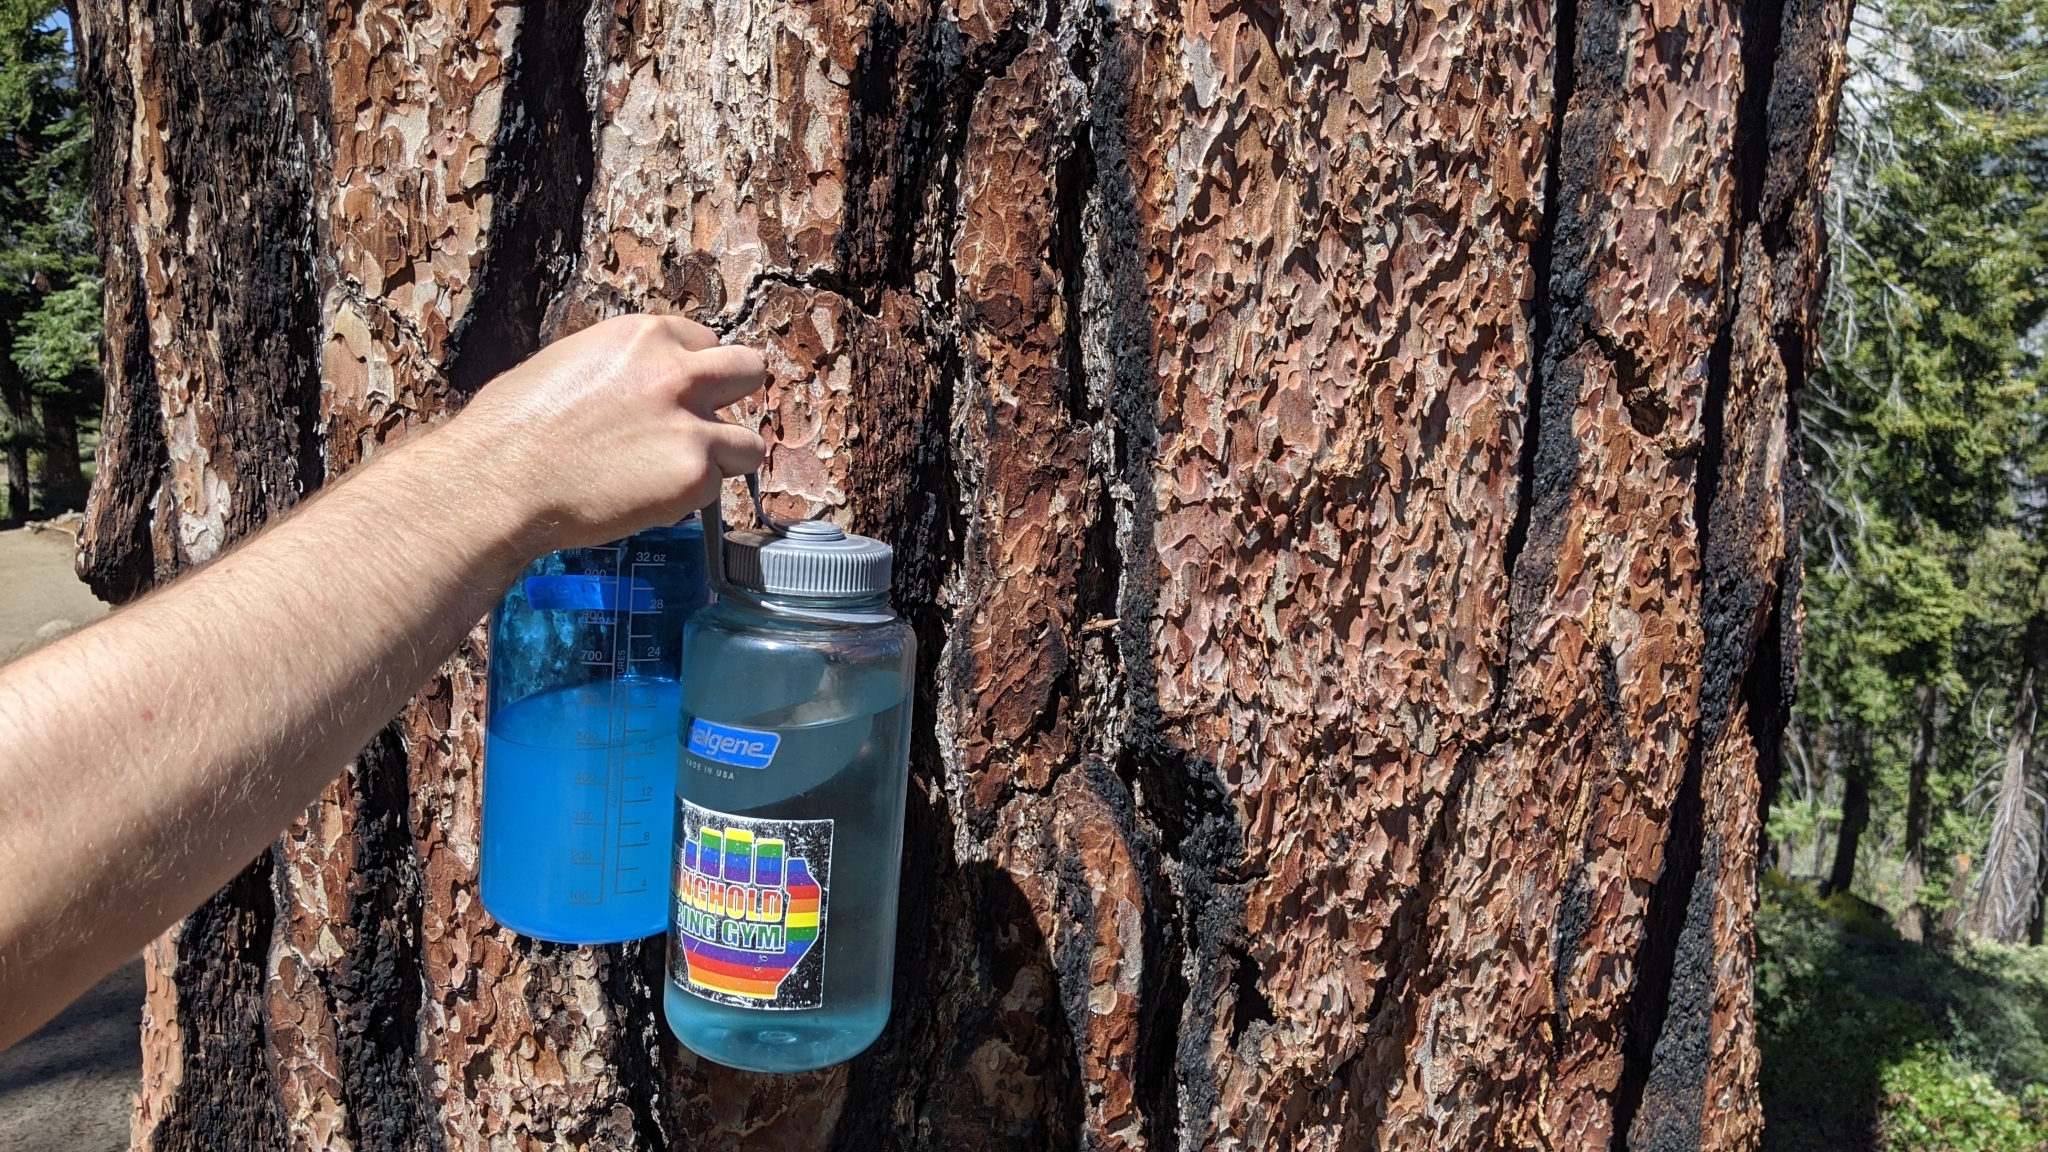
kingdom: Plantae
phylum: Tracheophyta
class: Pinopsida
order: Pinales
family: Pinaceae
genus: Pinus
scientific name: Pinus jeffreyi
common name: Jeffrey pine
